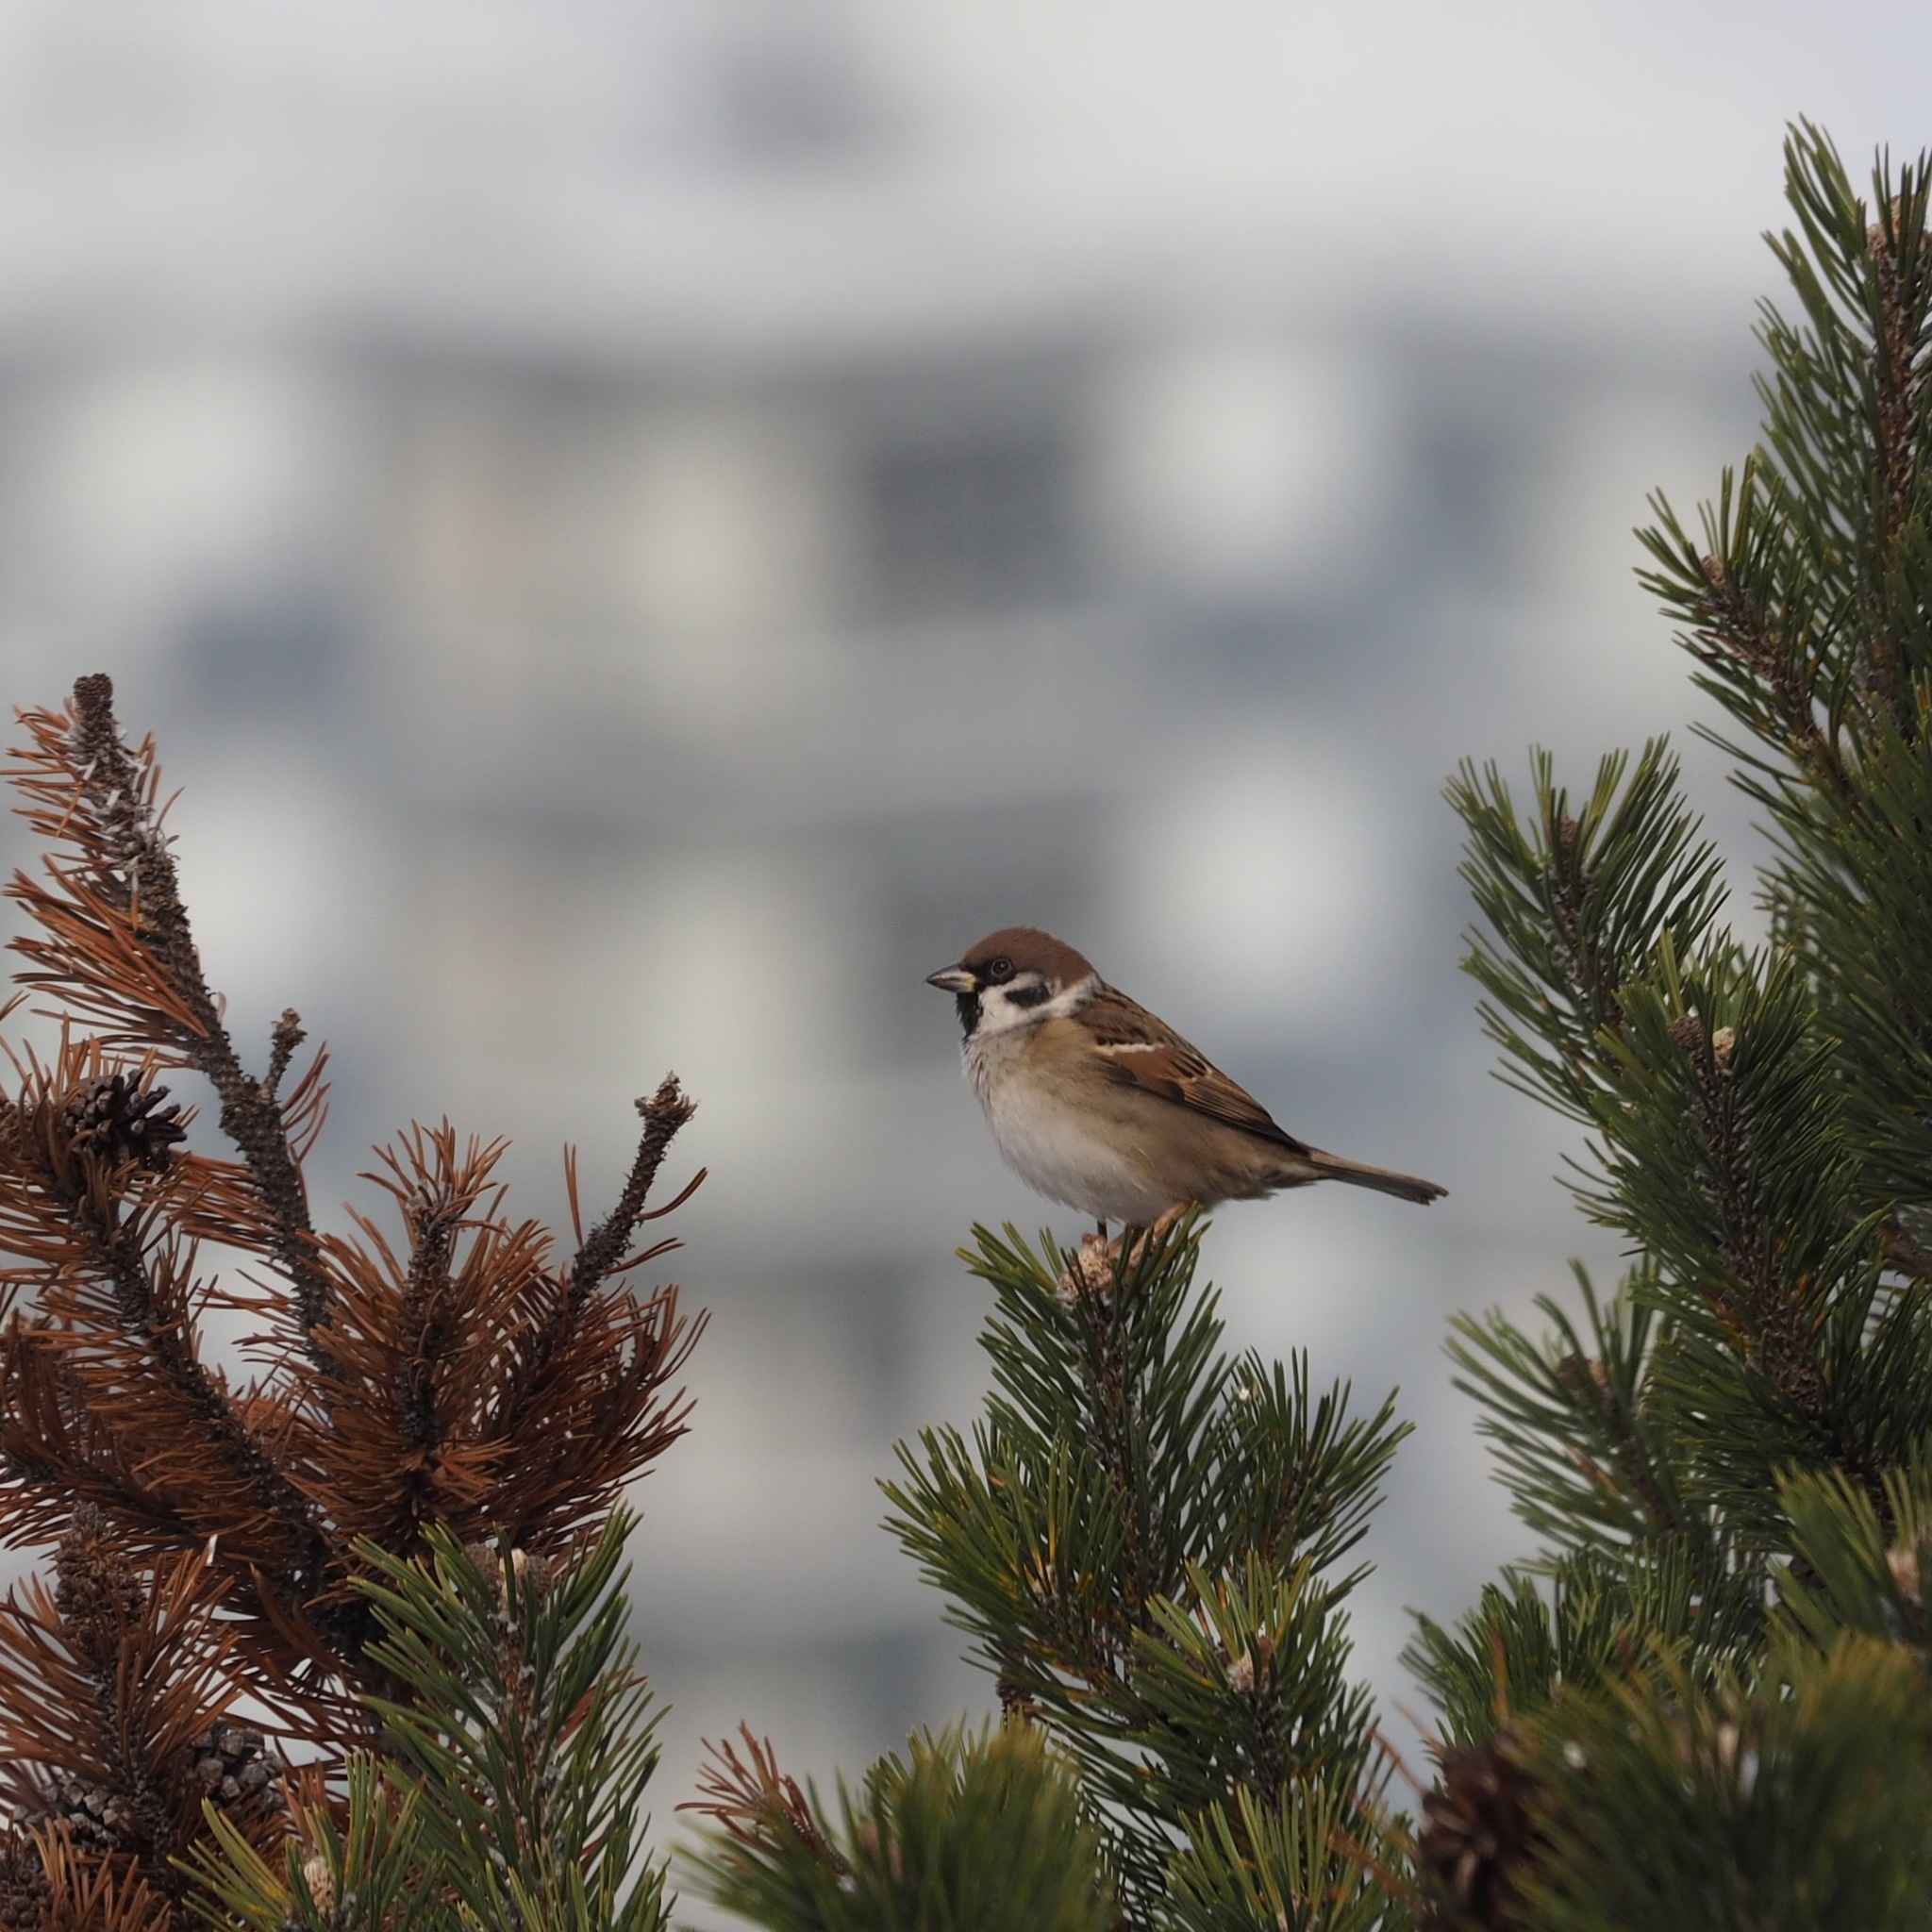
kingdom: Animalia
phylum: Chordata
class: Aves
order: Passeriformes
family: Passeridae
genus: Passer
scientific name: Passer montanus
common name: Eurasian tree sparrow
